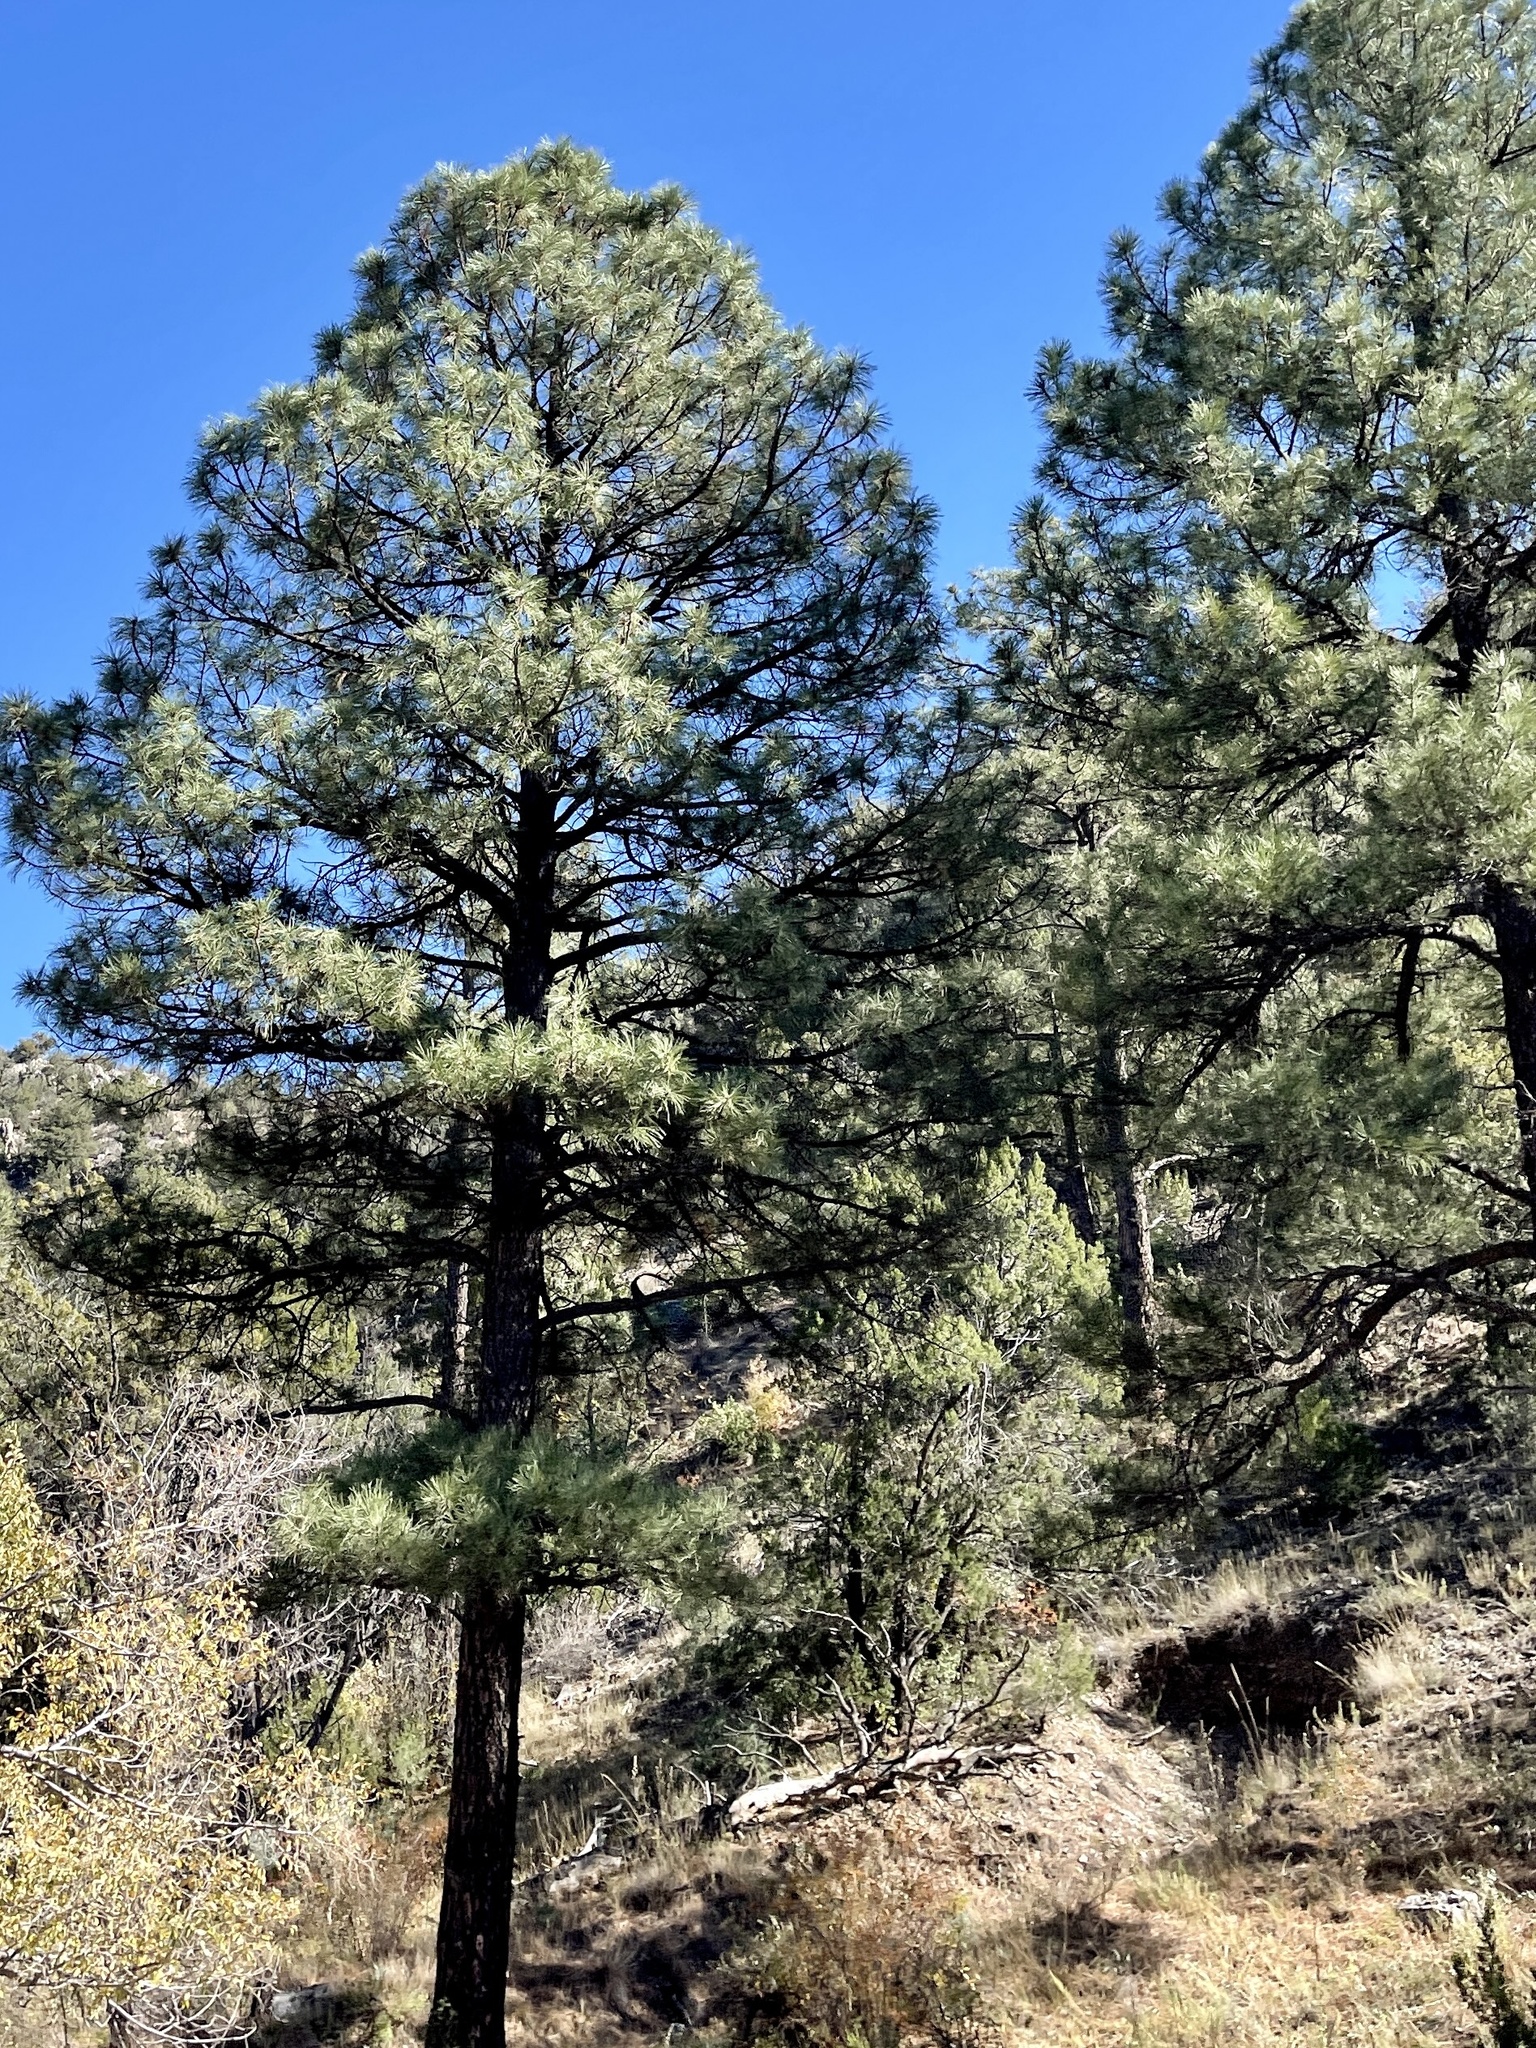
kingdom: Plantae
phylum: Tracheophyta
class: Pinopsida
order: Pinales
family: Pinaceae
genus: Pinus
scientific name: Pinus ponderosa
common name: Western yellow-pine
